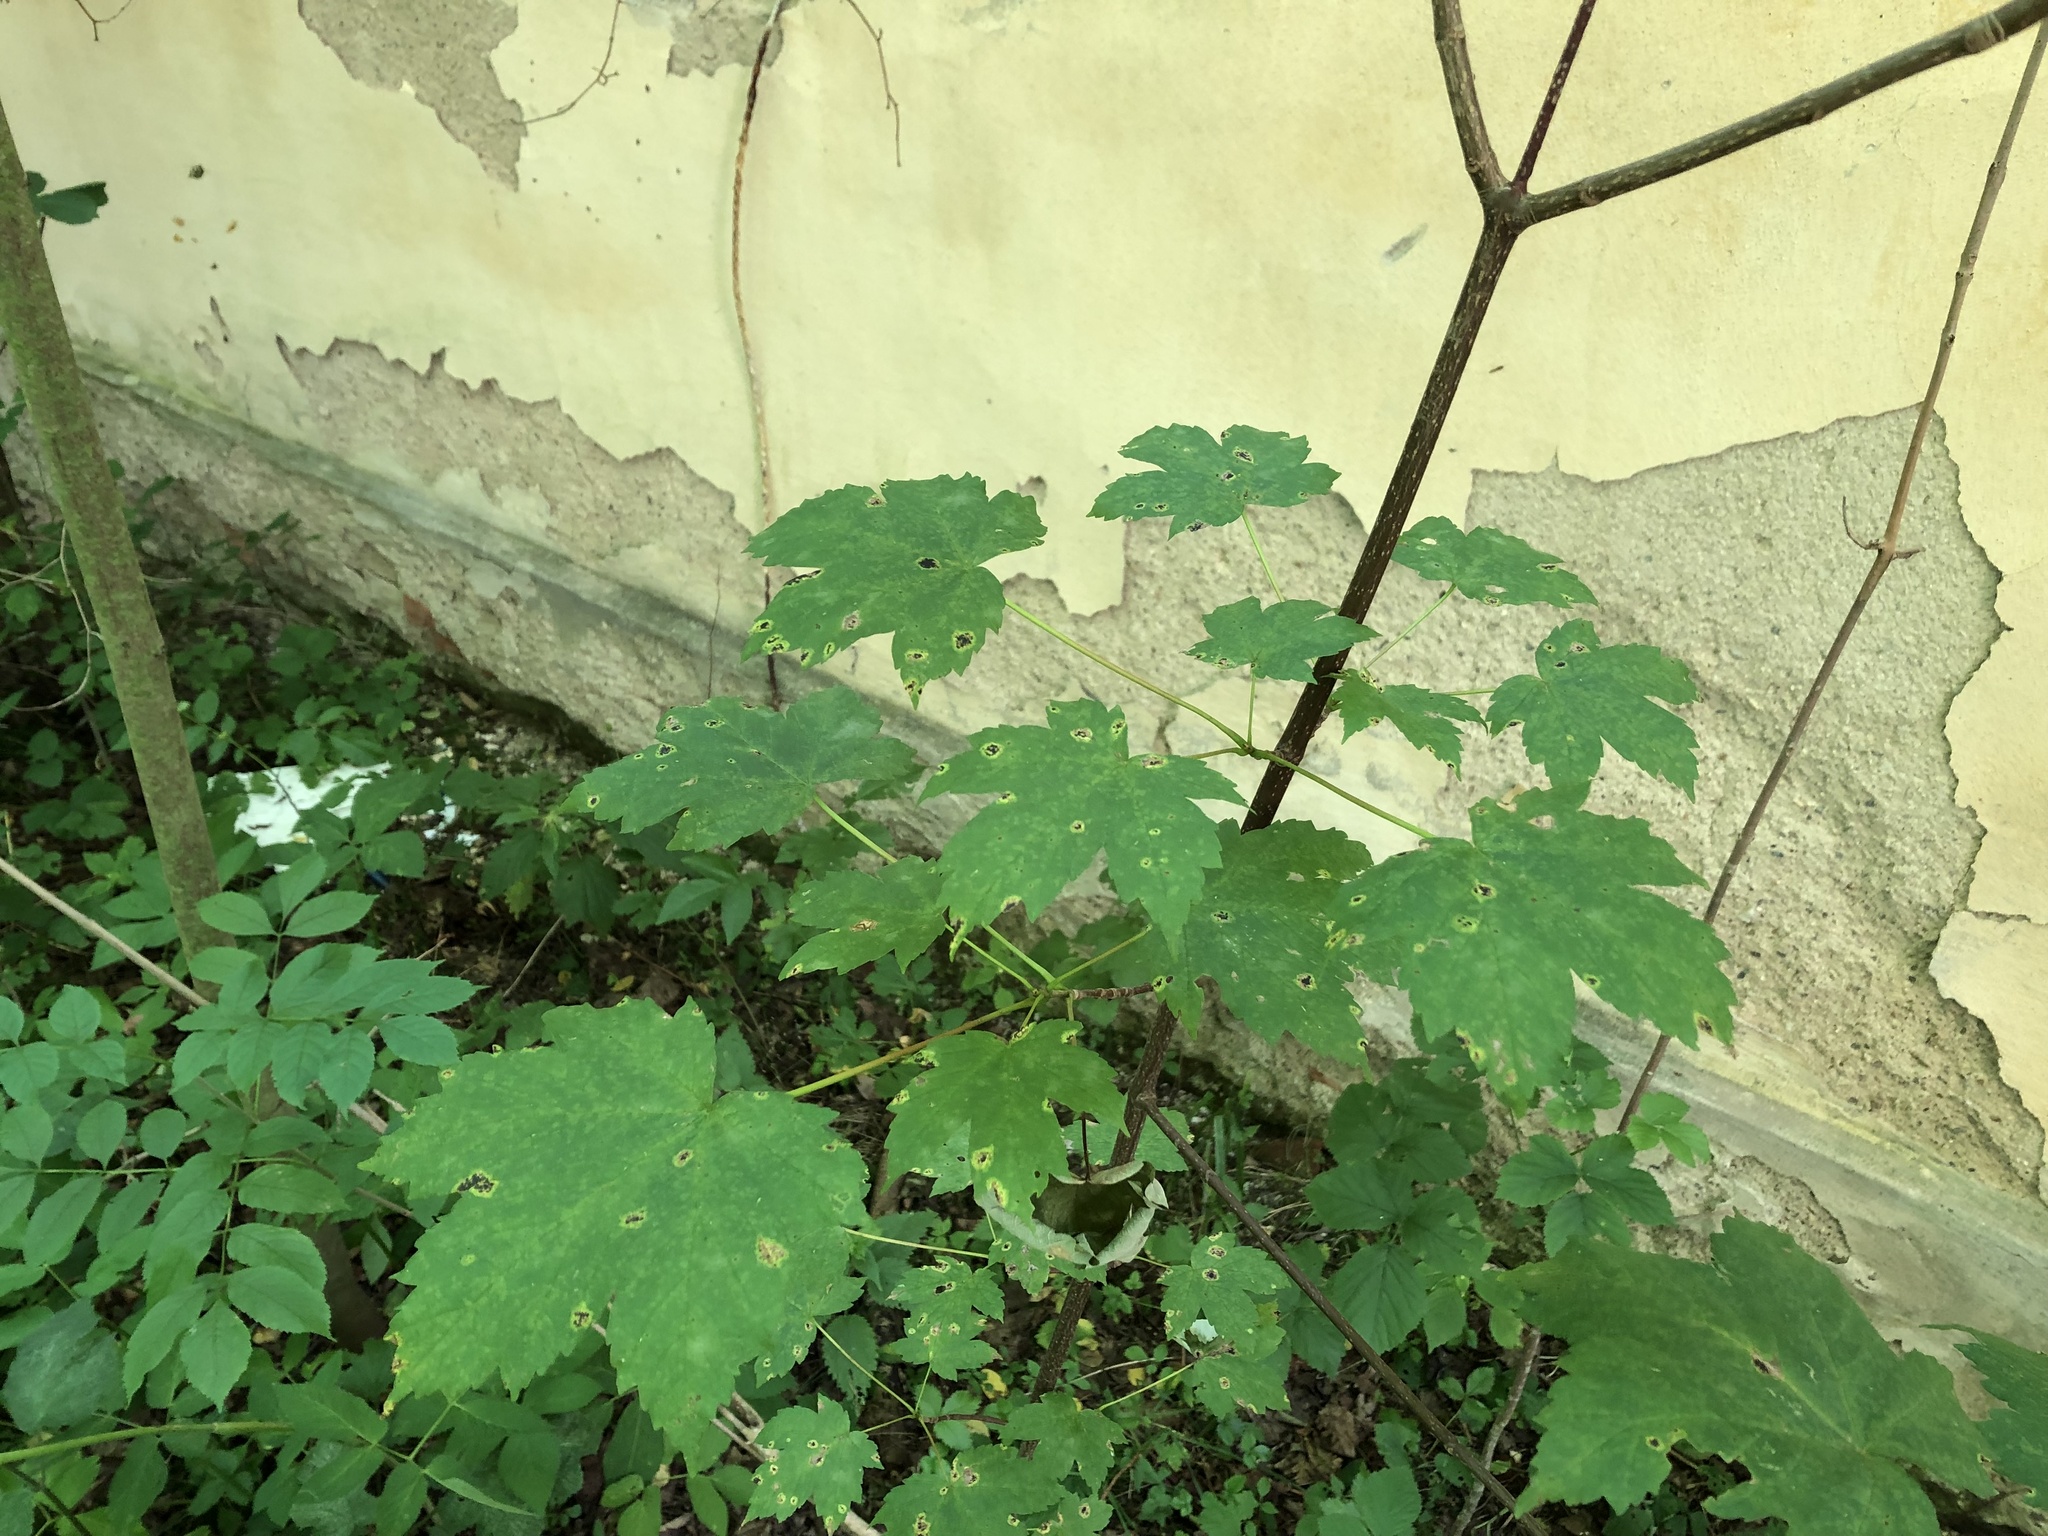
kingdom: Plantae
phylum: Tracheophyta
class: Magnoliopsida
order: Sapindales
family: Sapindaceae
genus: Acer
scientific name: Acer pseudoplatanus
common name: Sycamore
